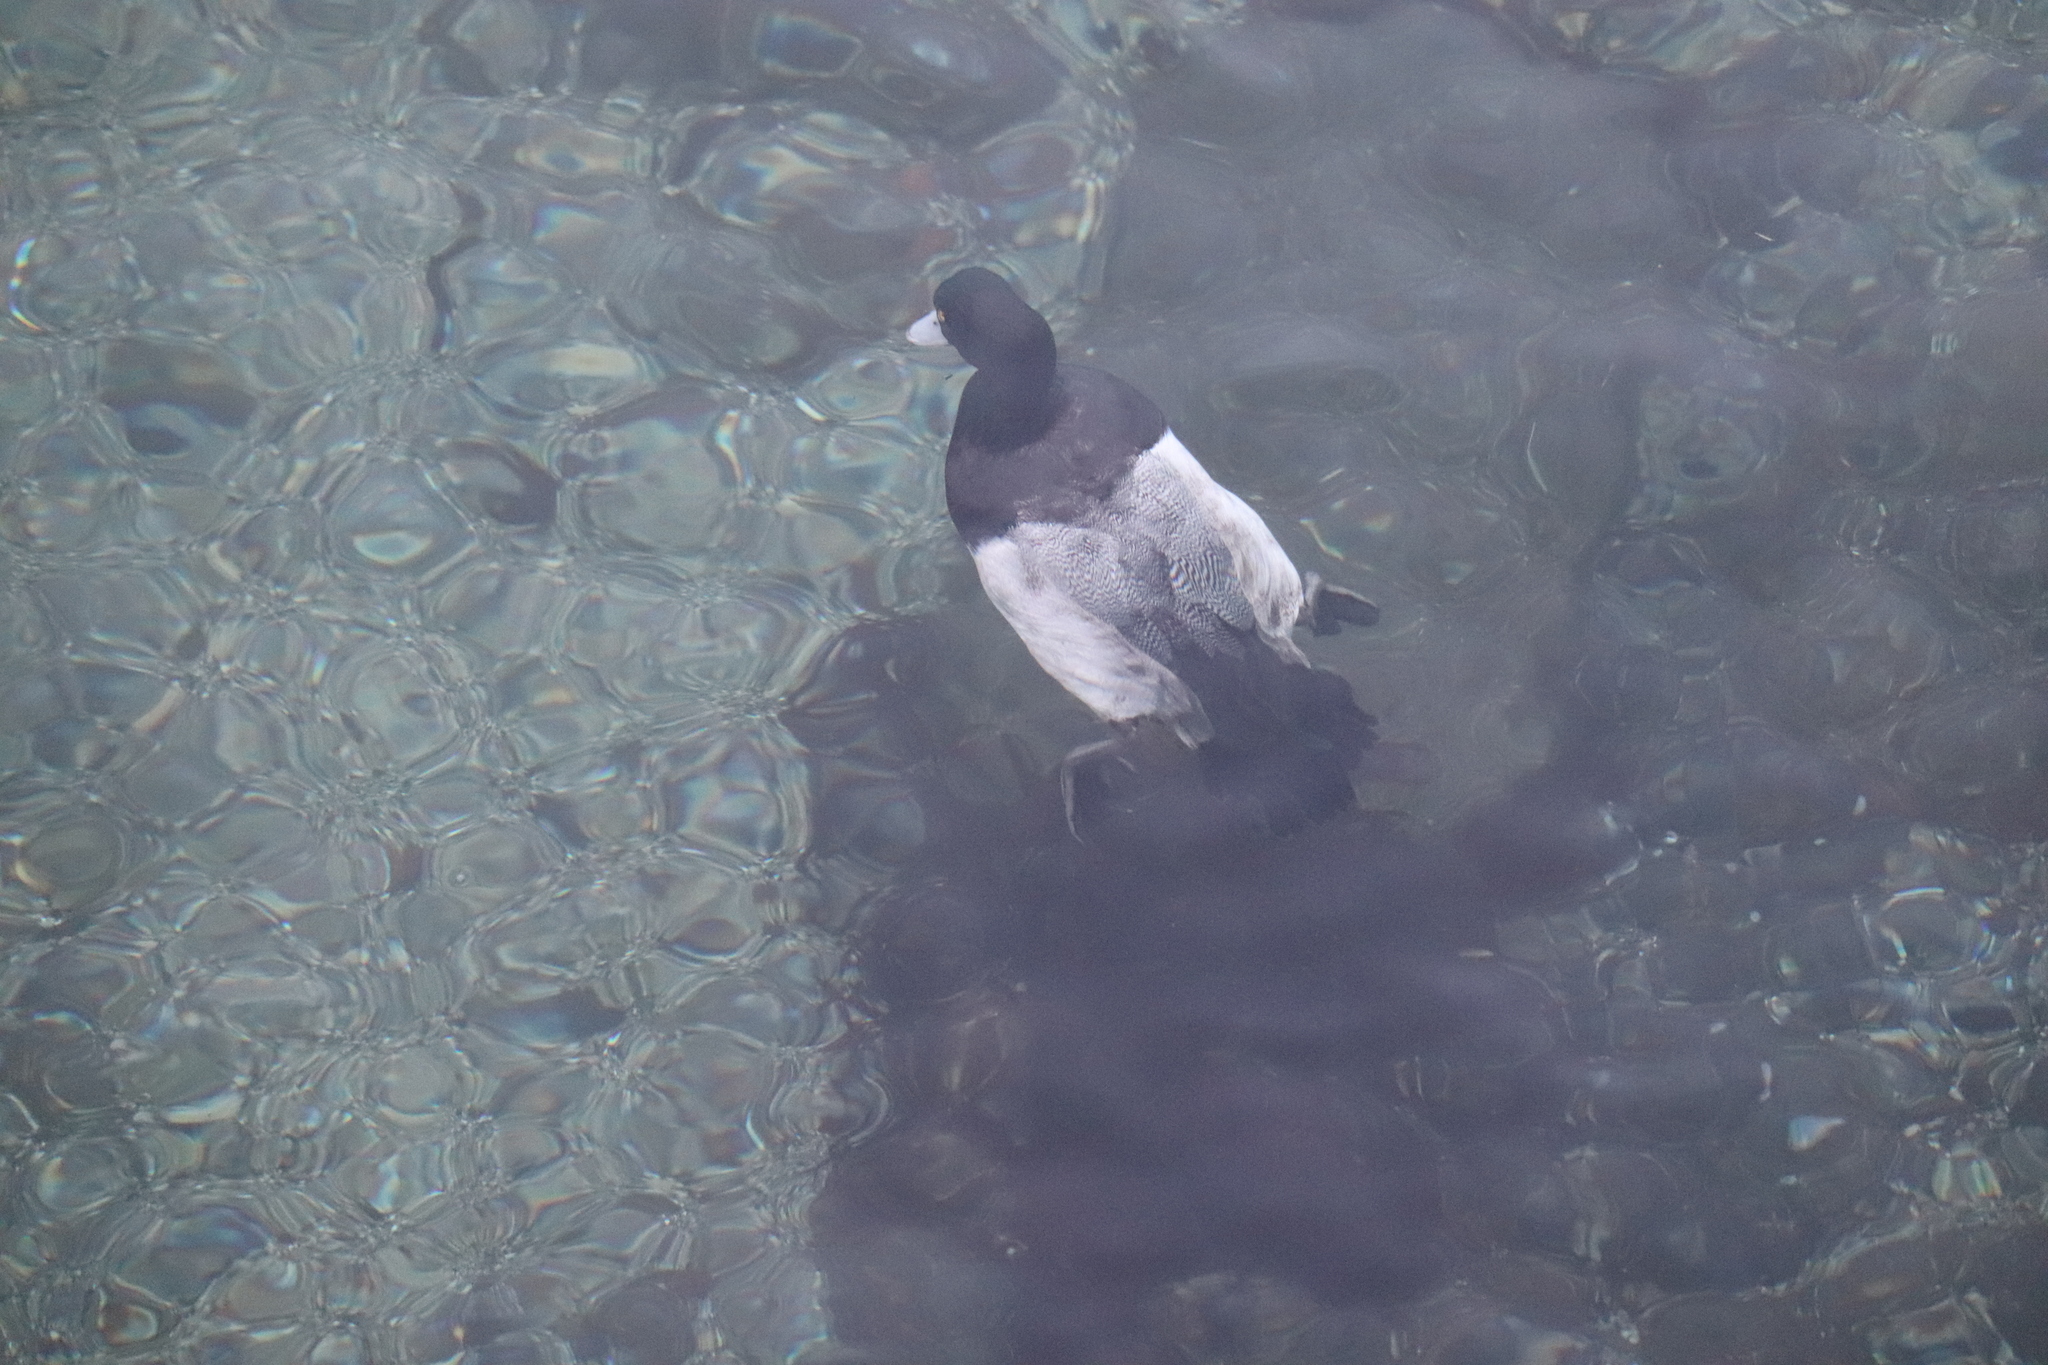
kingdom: Animalia
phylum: Chordata
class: Aves
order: Anseriformes
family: Anatidae
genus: Aythya
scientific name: Aythya marila
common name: Greater scaup
